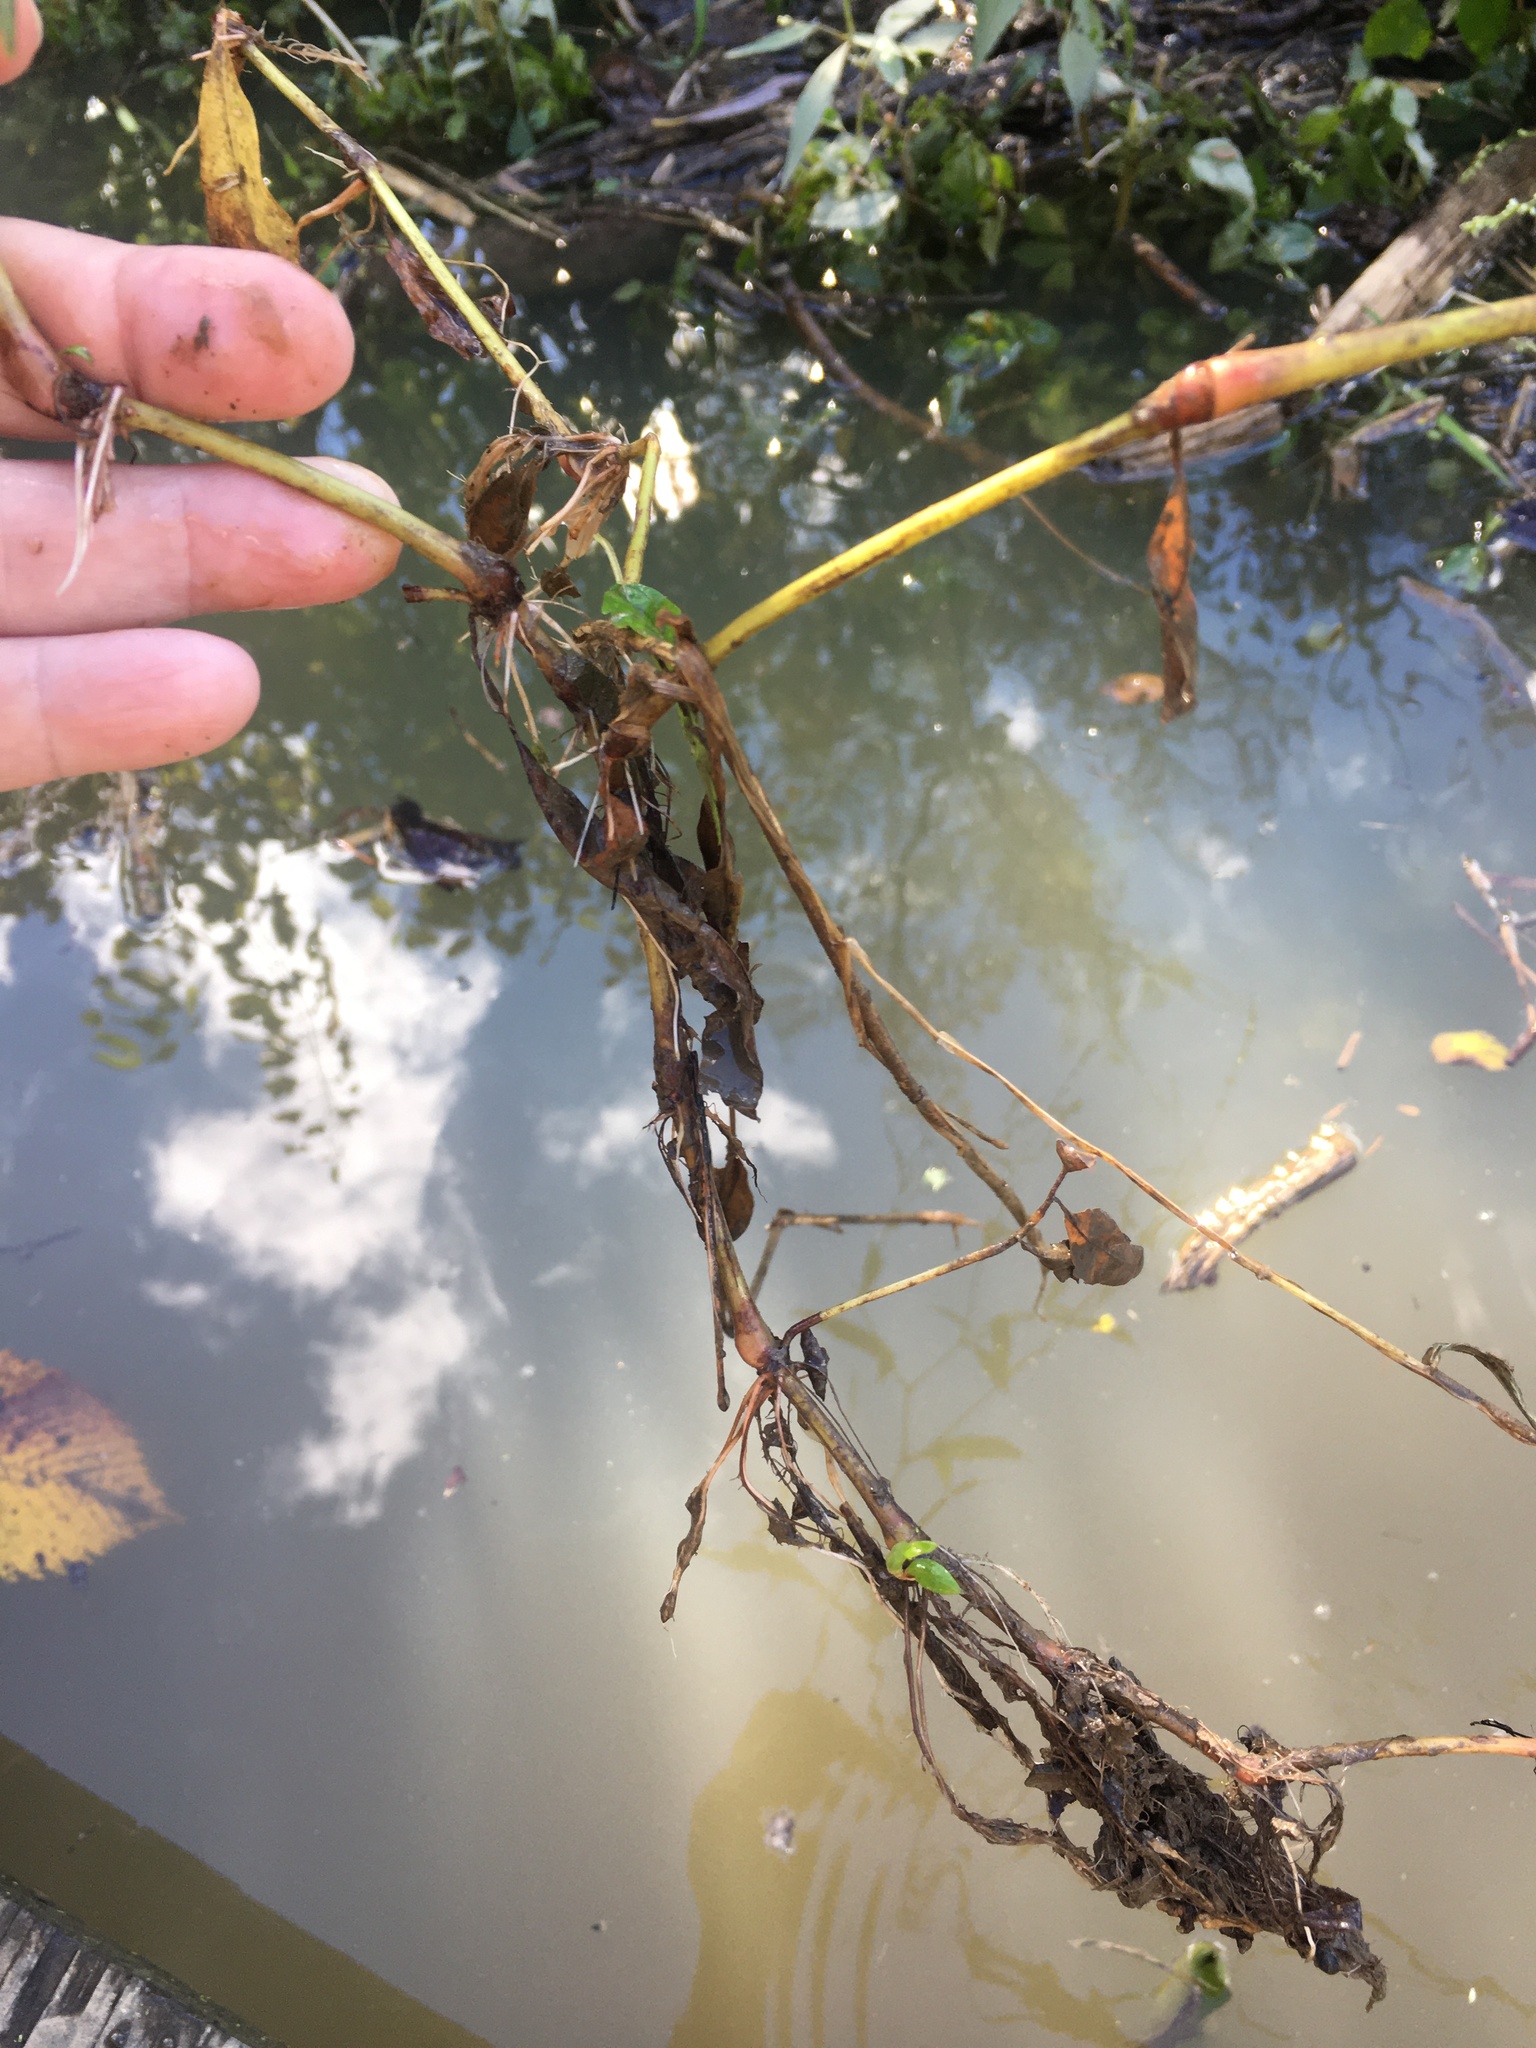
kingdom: Plantae
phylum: Tracheophyta
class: Magnoliopsida
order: Caryophyllales
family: Polygonaceae
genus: Persicaria
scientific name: Persicaria punctata
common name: Dotted smartweed
